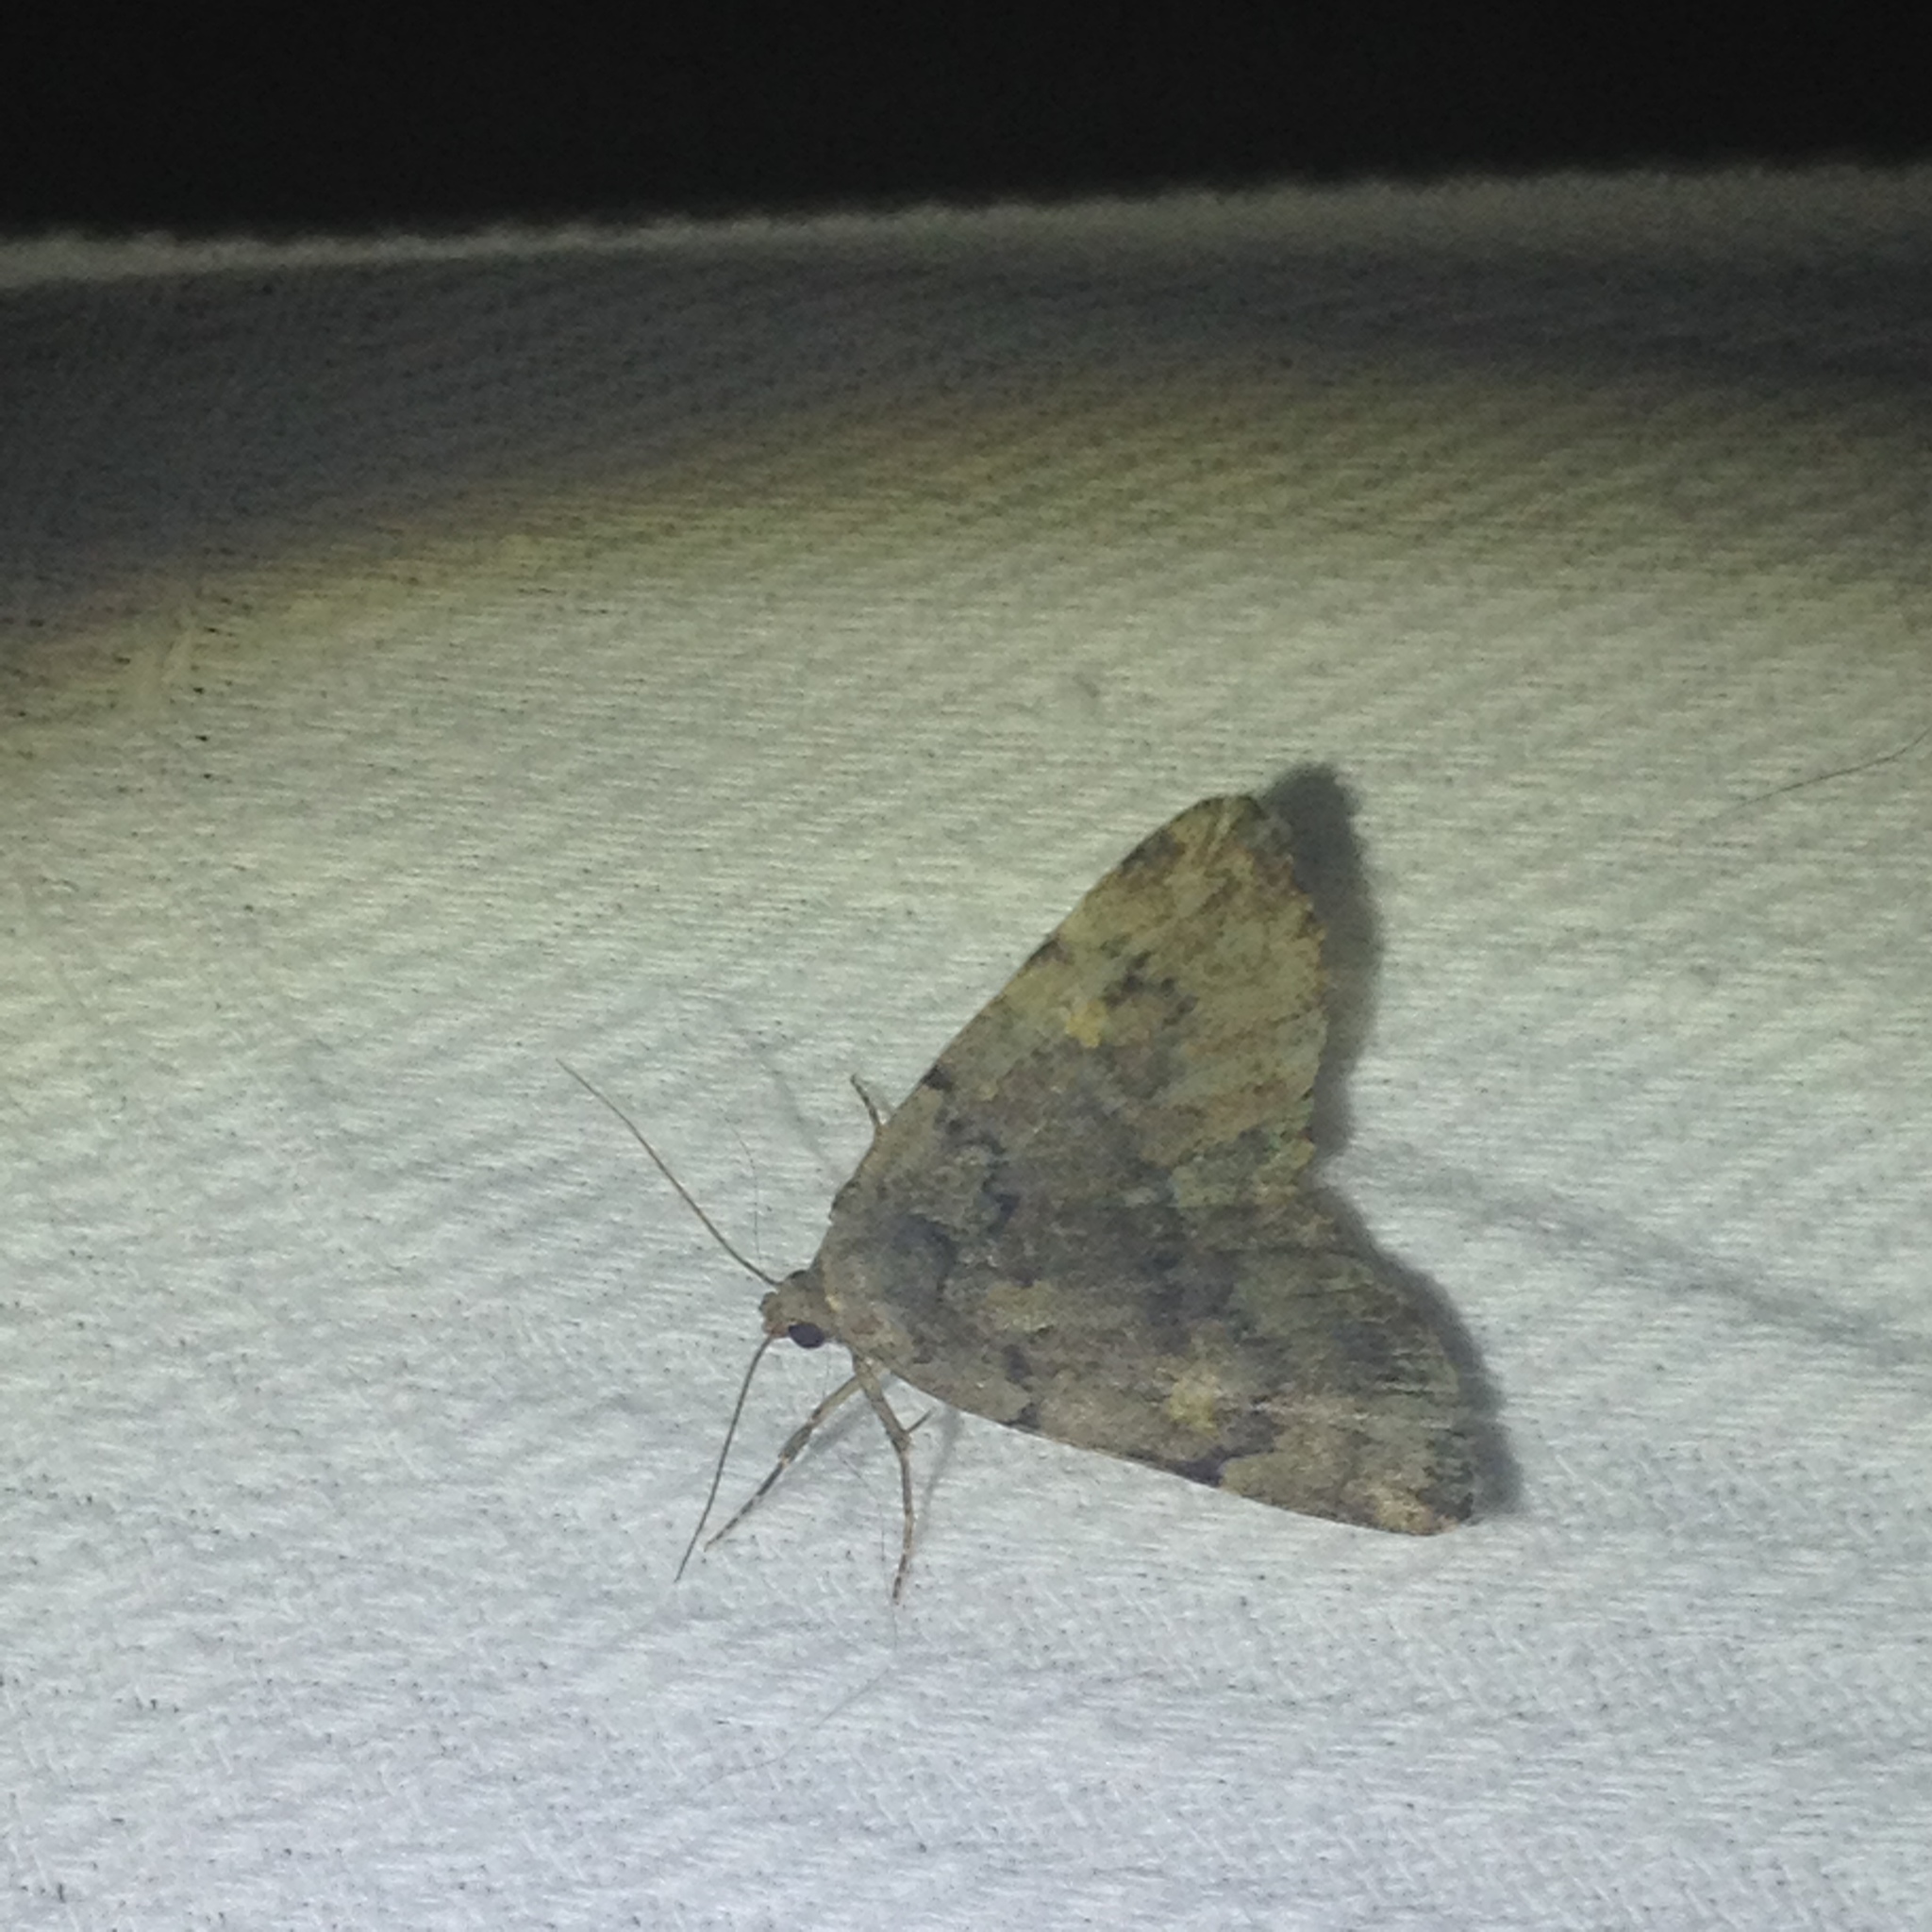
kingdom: Animalia
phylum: Arthropoda
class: Insecta
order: Lepidoptera
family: Erebidae
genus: Idia
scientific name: Idia aemula
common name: Common idia moth
